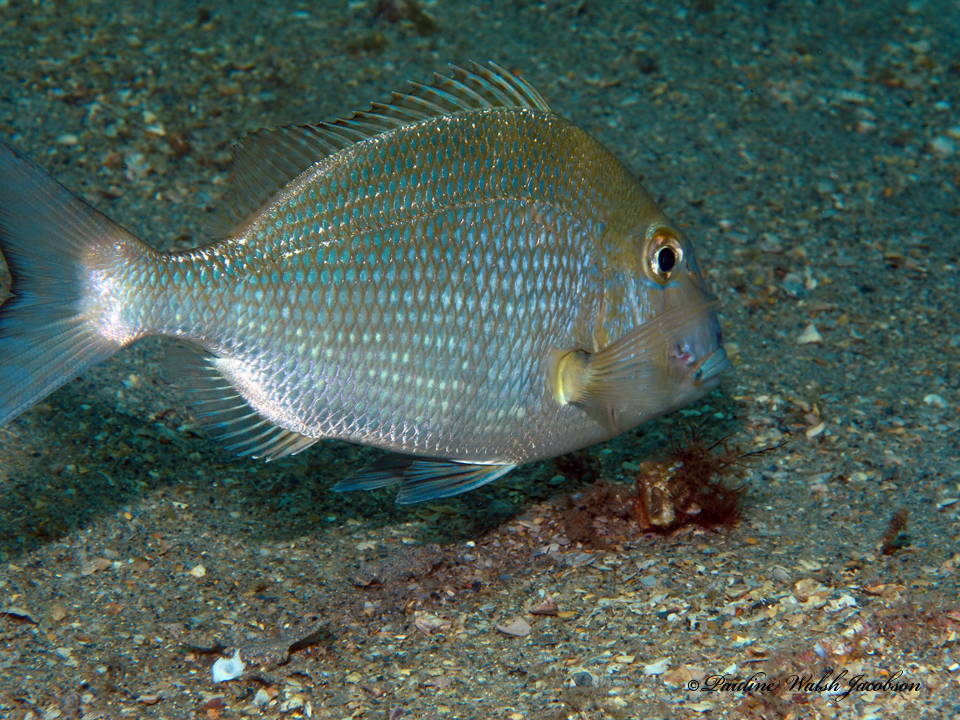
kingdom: Animalia
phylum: Chordata
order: Perciformes
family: Sparidae
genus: Calamus
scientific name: Calamus penna
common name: Sheepshead porgy
